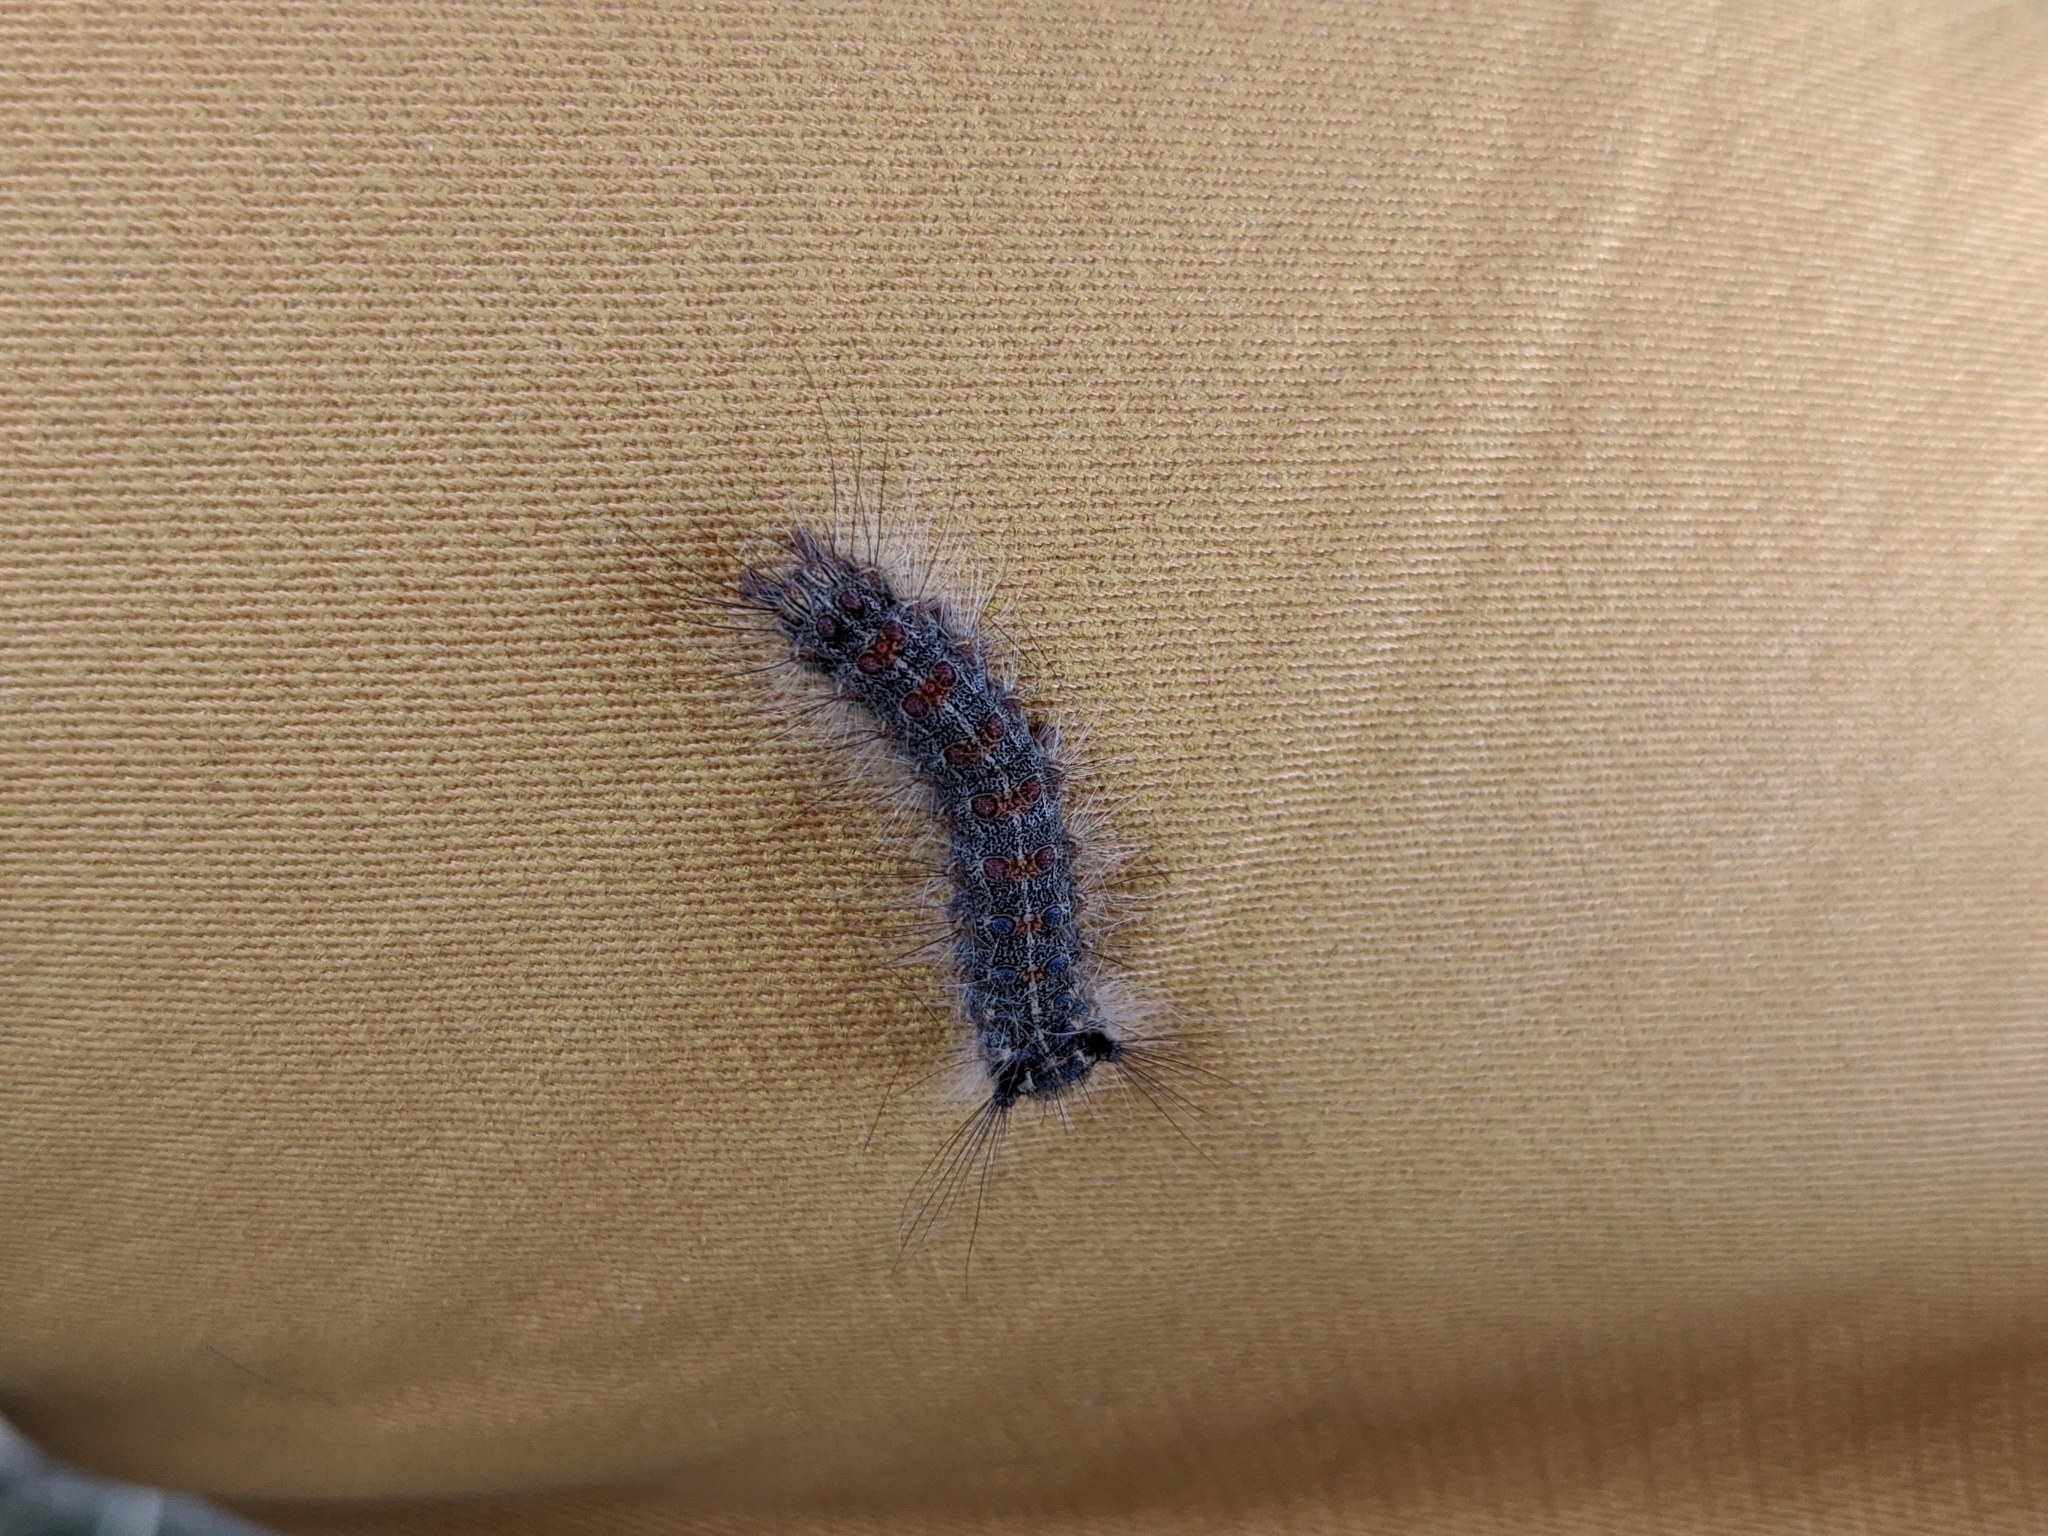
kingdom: Animalia
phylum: Arthropoda
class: Insecta
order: Lepidoptera
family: Erebidae
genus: Lymantria
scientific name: Lymantria dispar
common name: Gypsy moth
